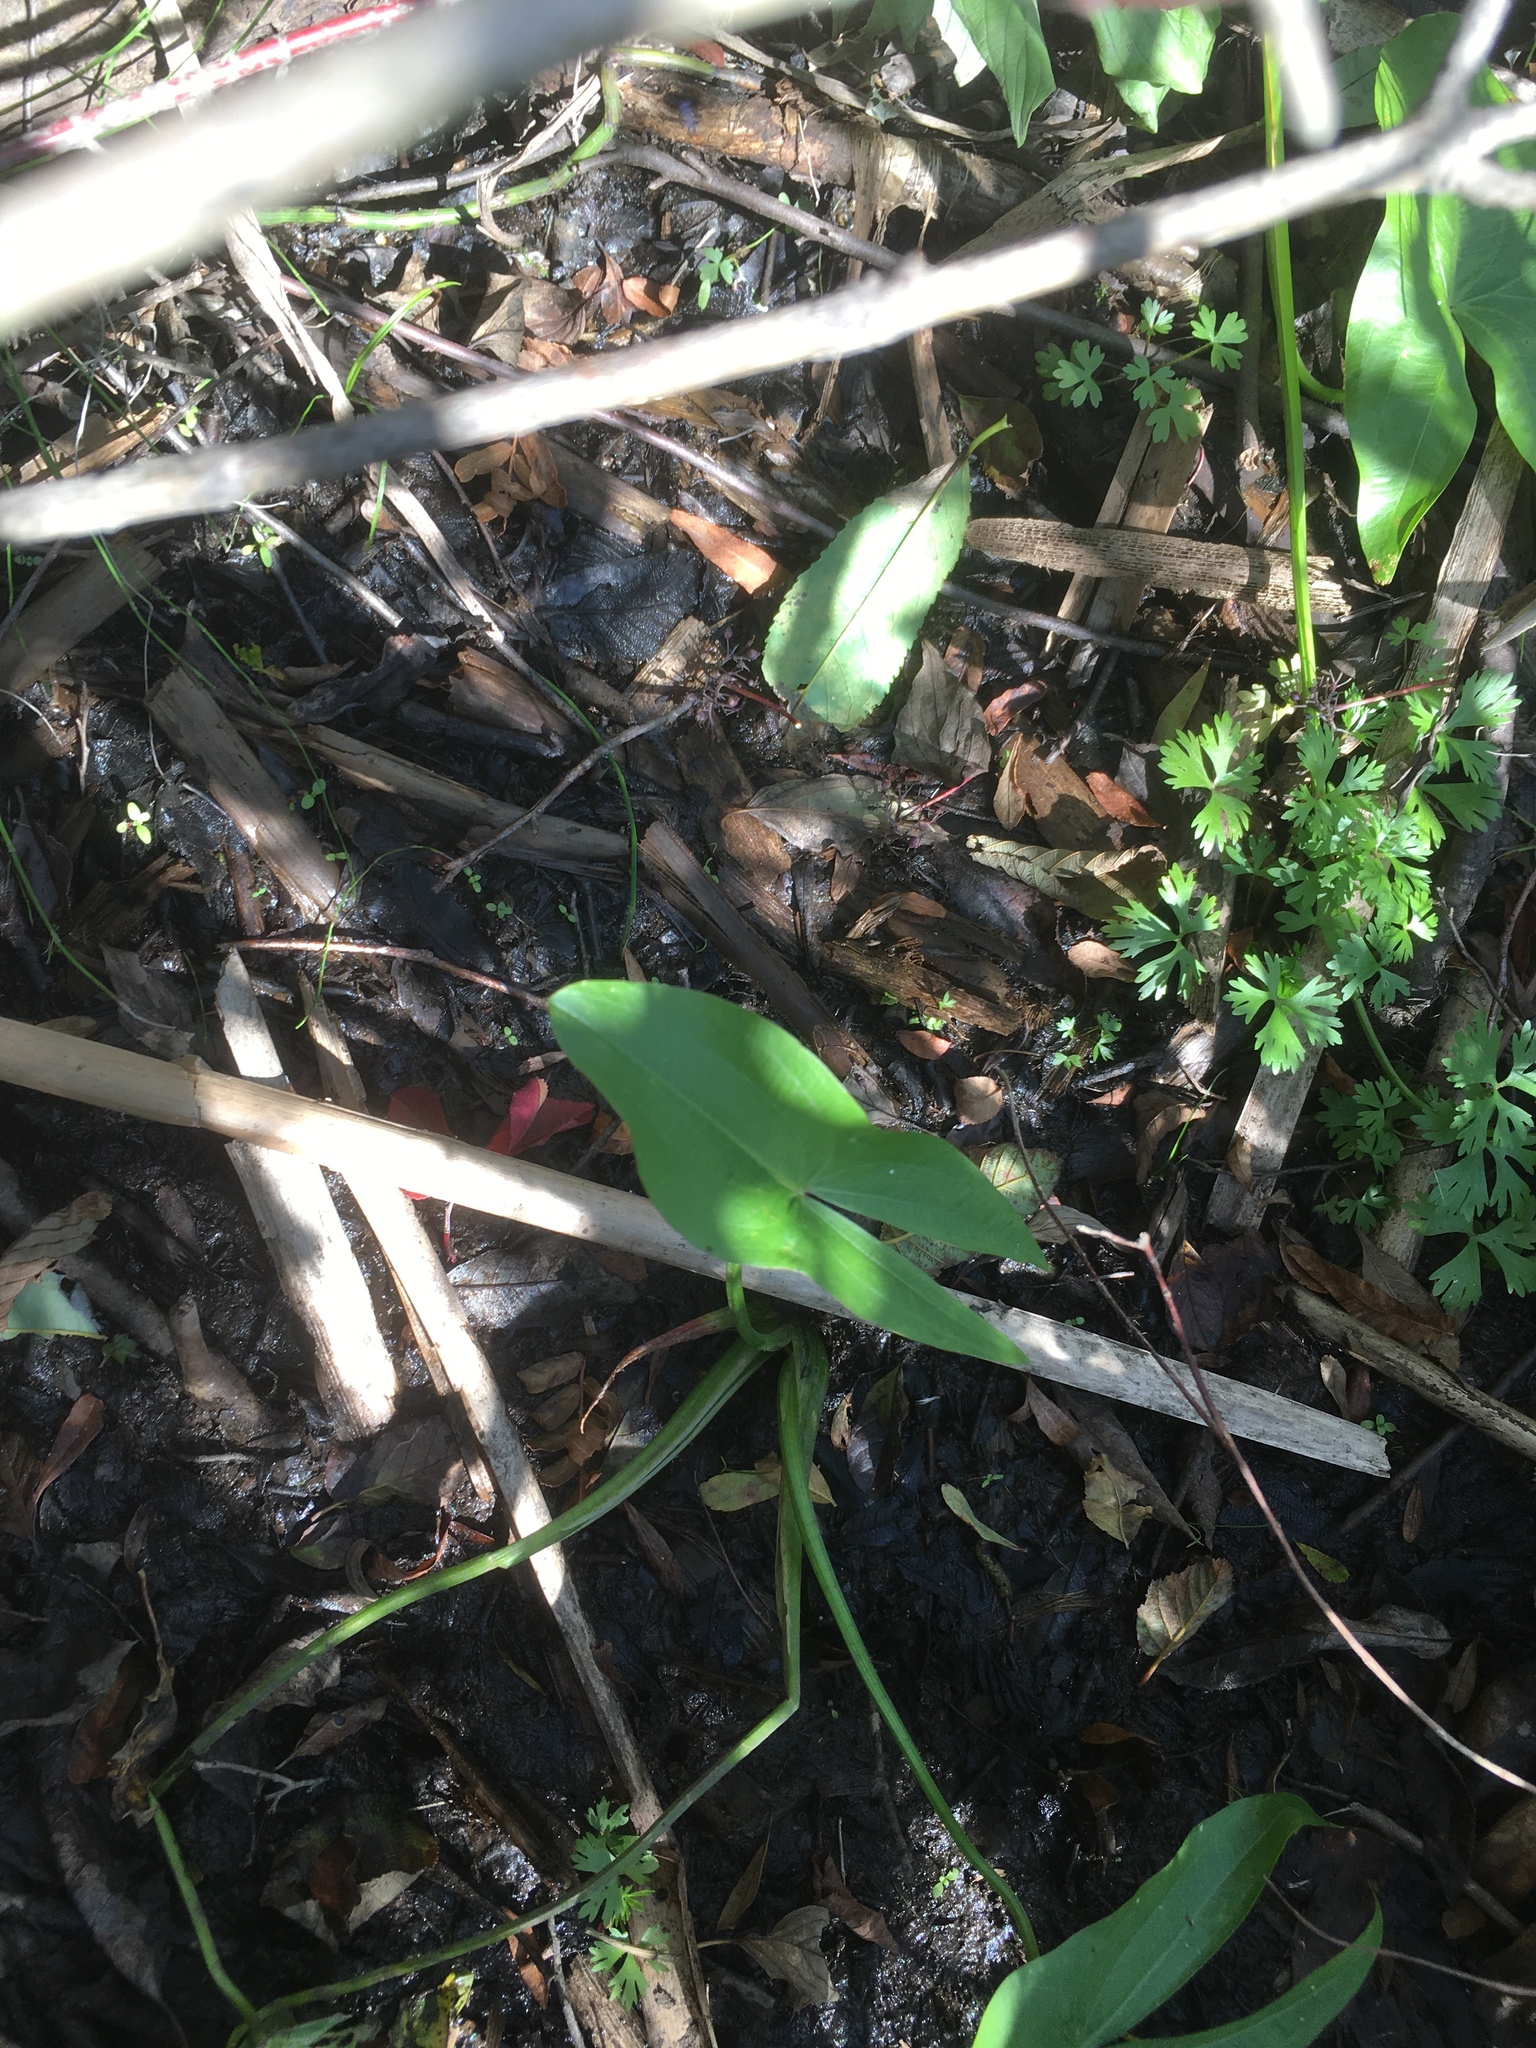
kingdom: Plantae
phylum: Tracheophyta
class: Liliopsida
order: Alismatales
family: Alismataceae
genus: Sagittaria
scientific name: Sagittaria latifolia
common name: Duck-potato
